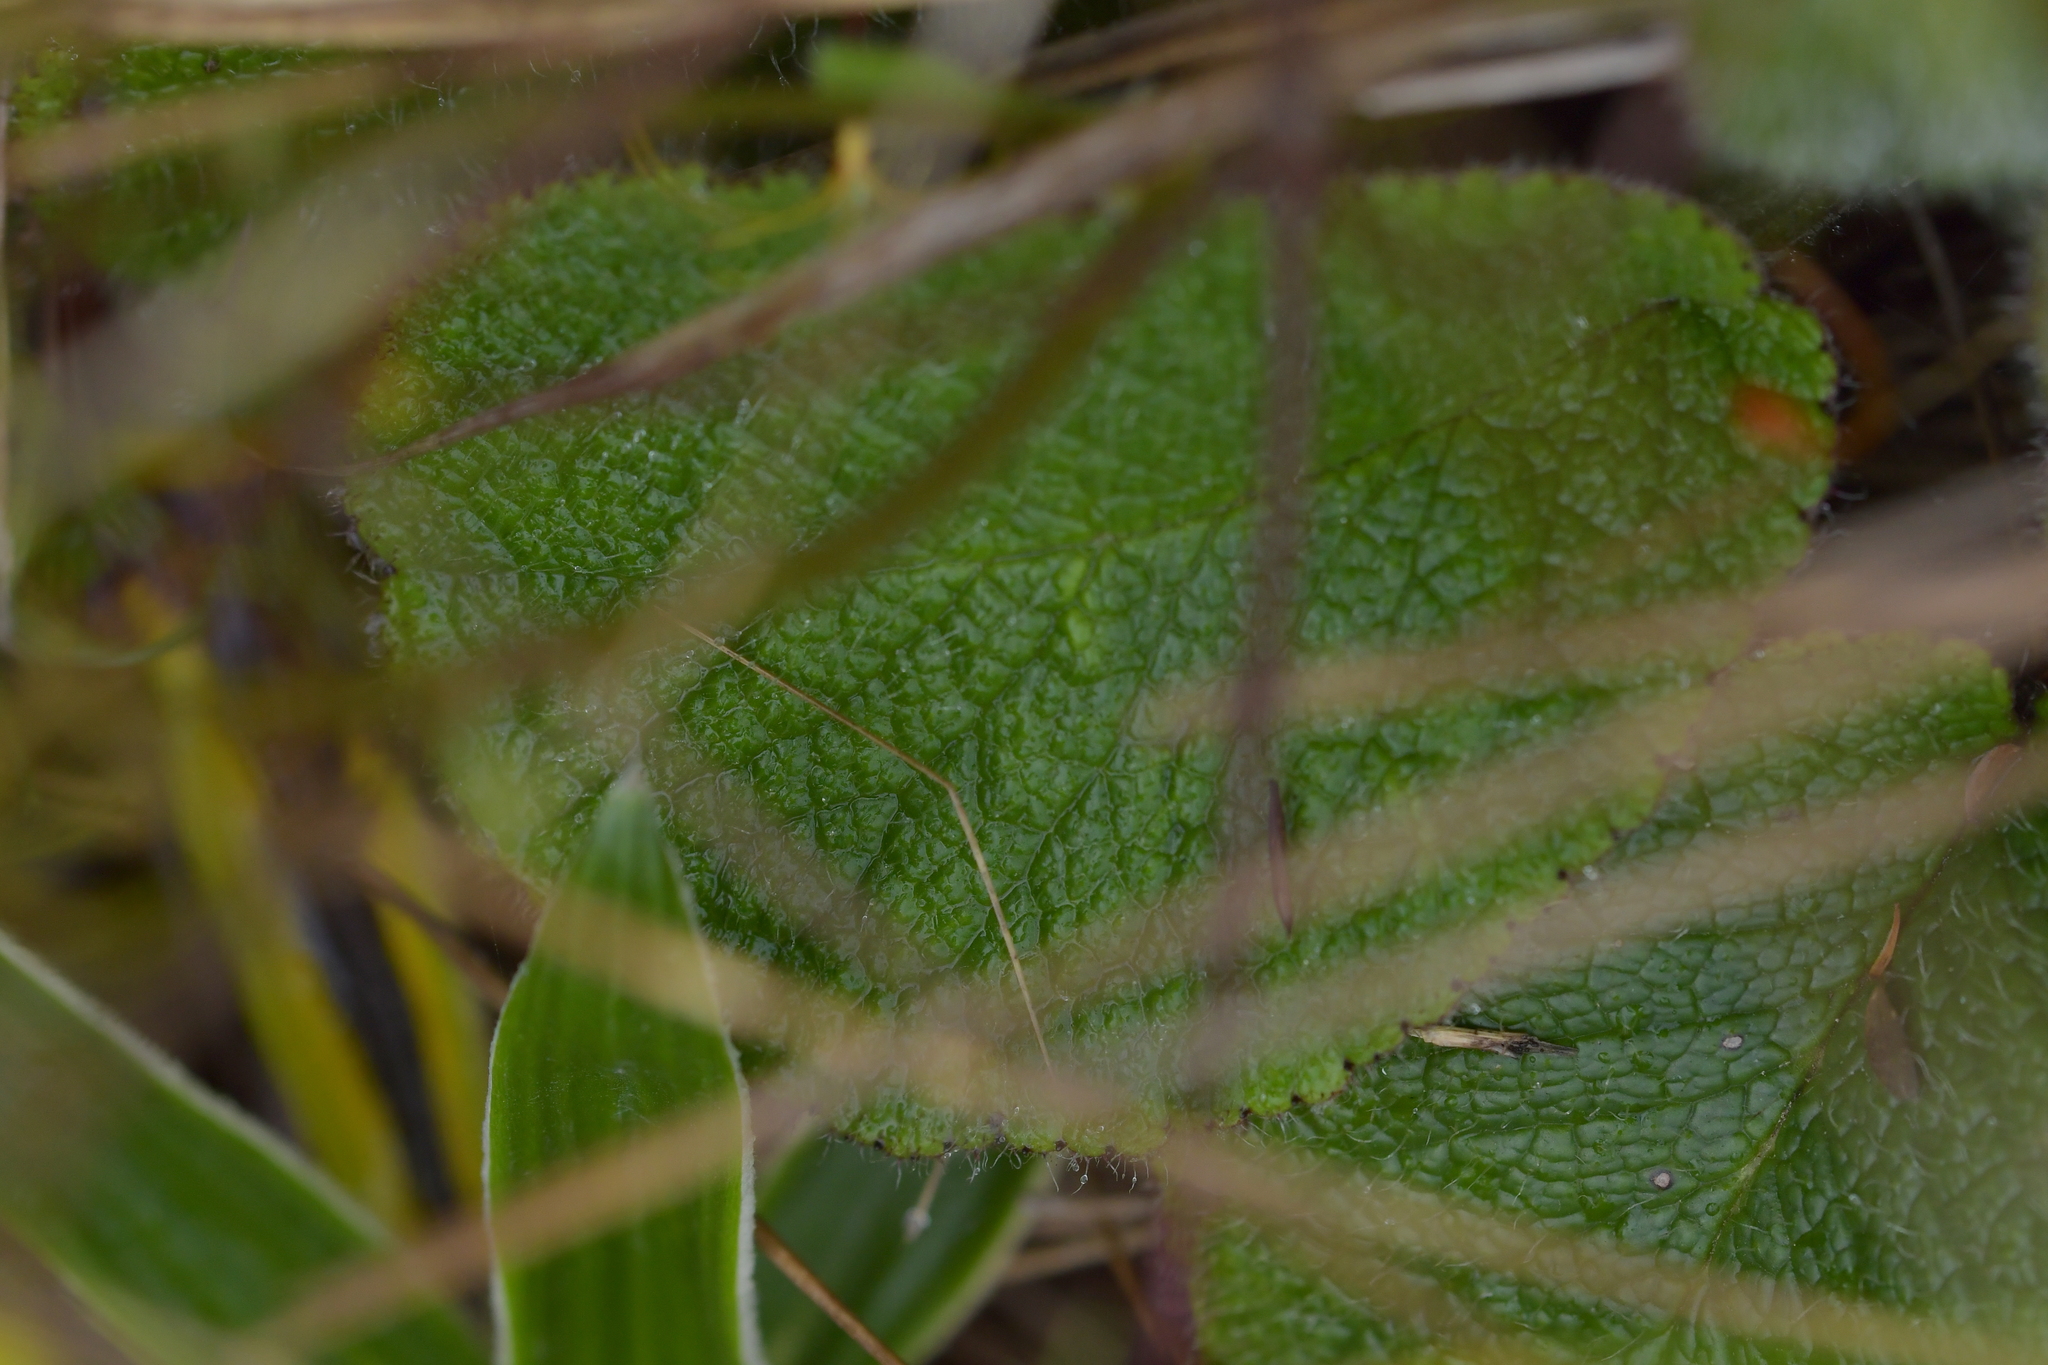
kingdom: Plantae
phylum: Tracheophyta
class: Magnoliopsida
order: Asterales
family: Asteraceae
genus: Brachyglottis
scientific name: Brachyglottis lagopus
